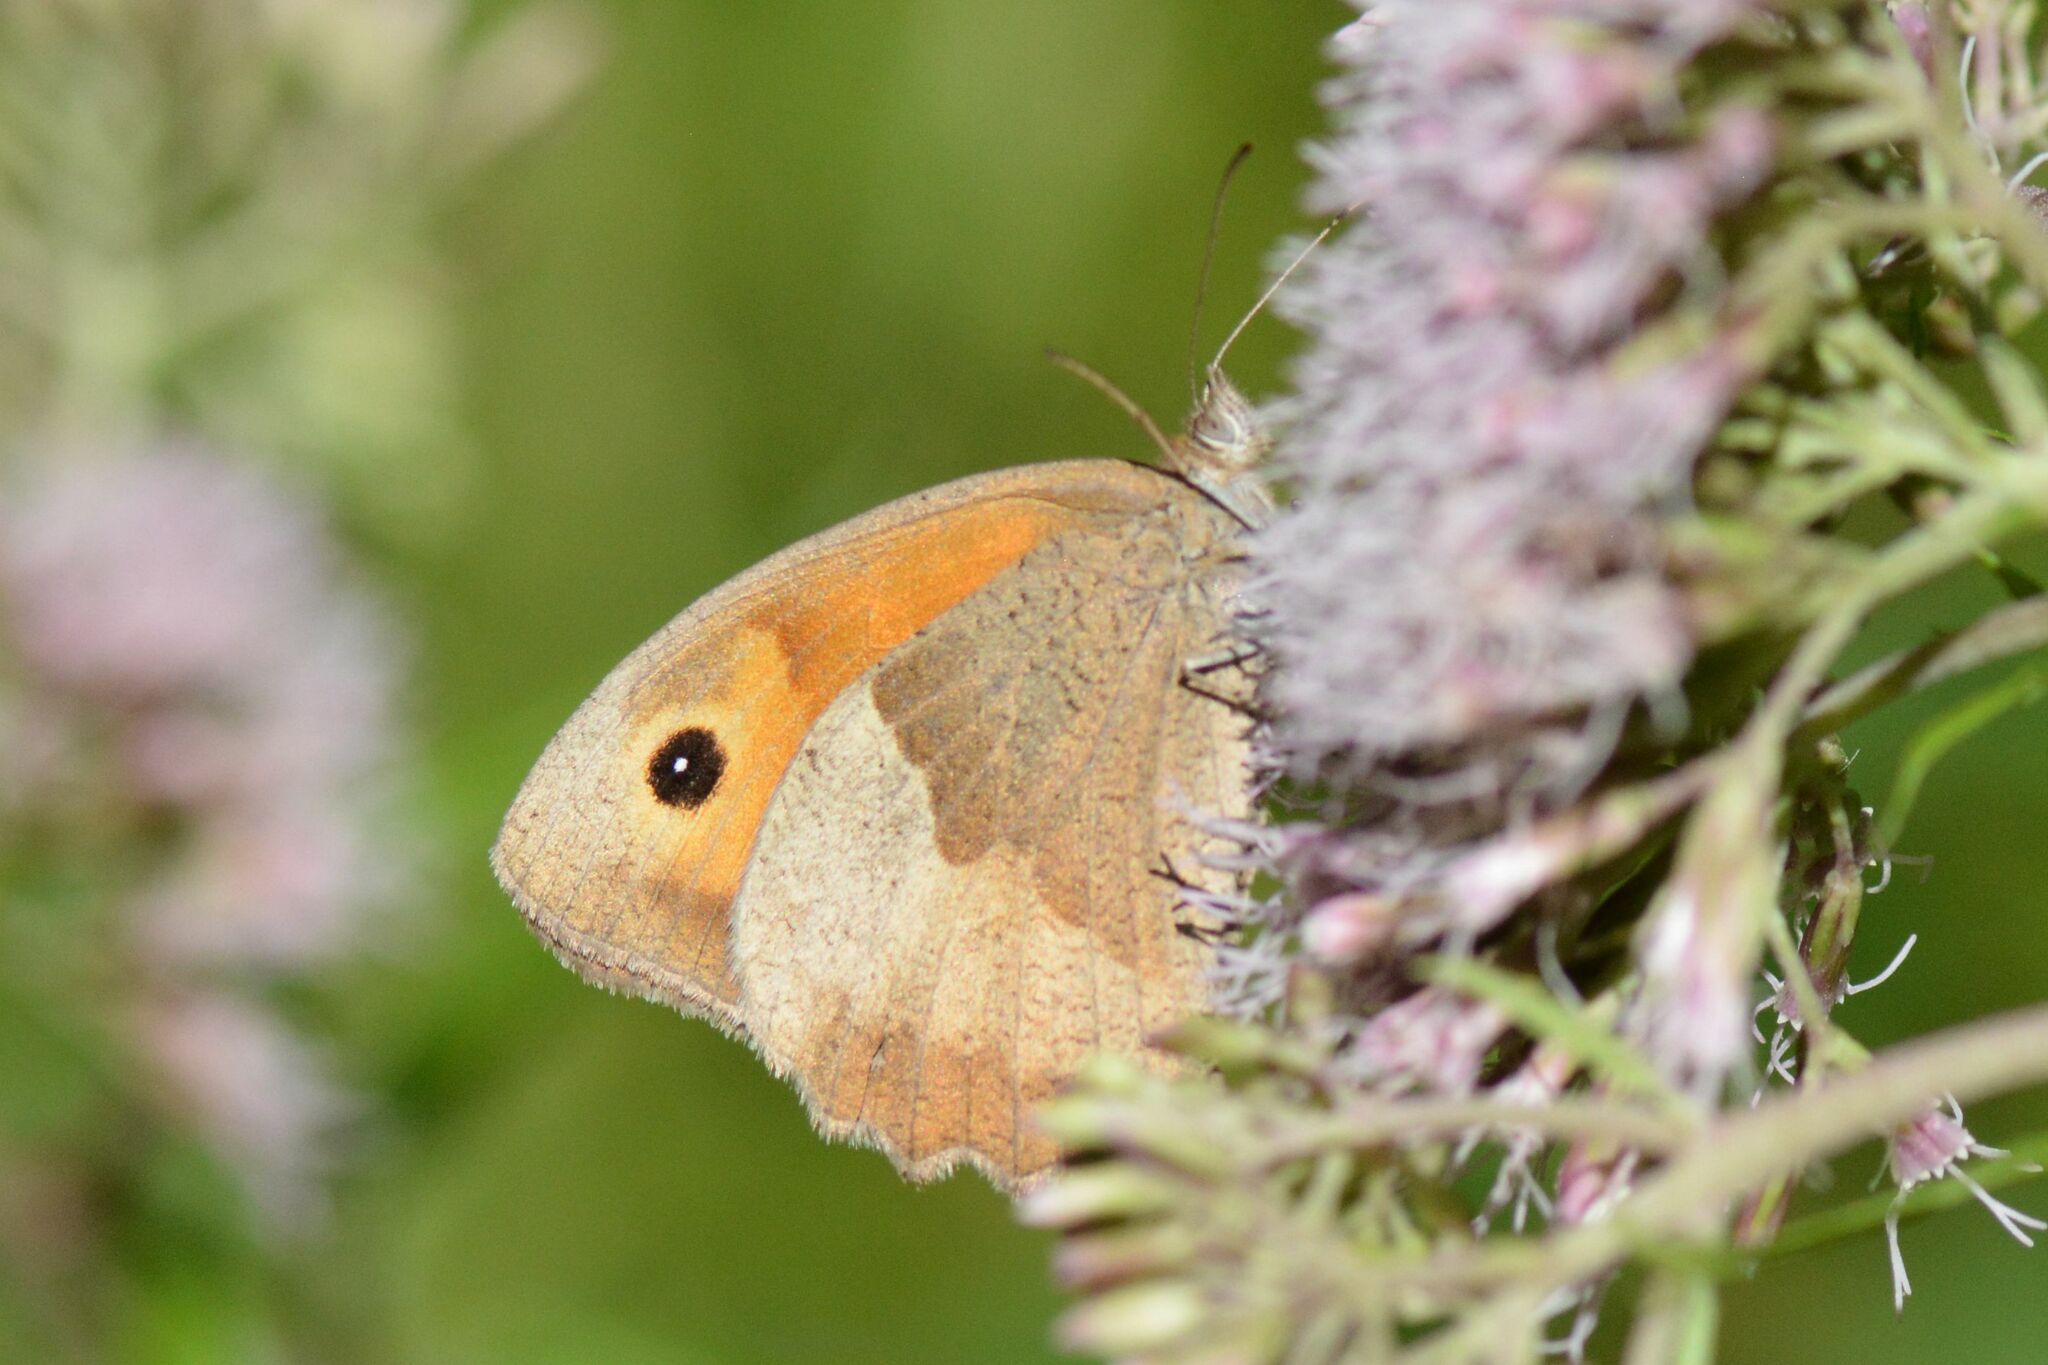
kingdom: Animalia
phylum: Arthropoda
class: Insecta
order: Lepidoptera
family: Nymphalidae
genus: Maniola
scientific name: Maniola jurtina
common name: Meadow brown
